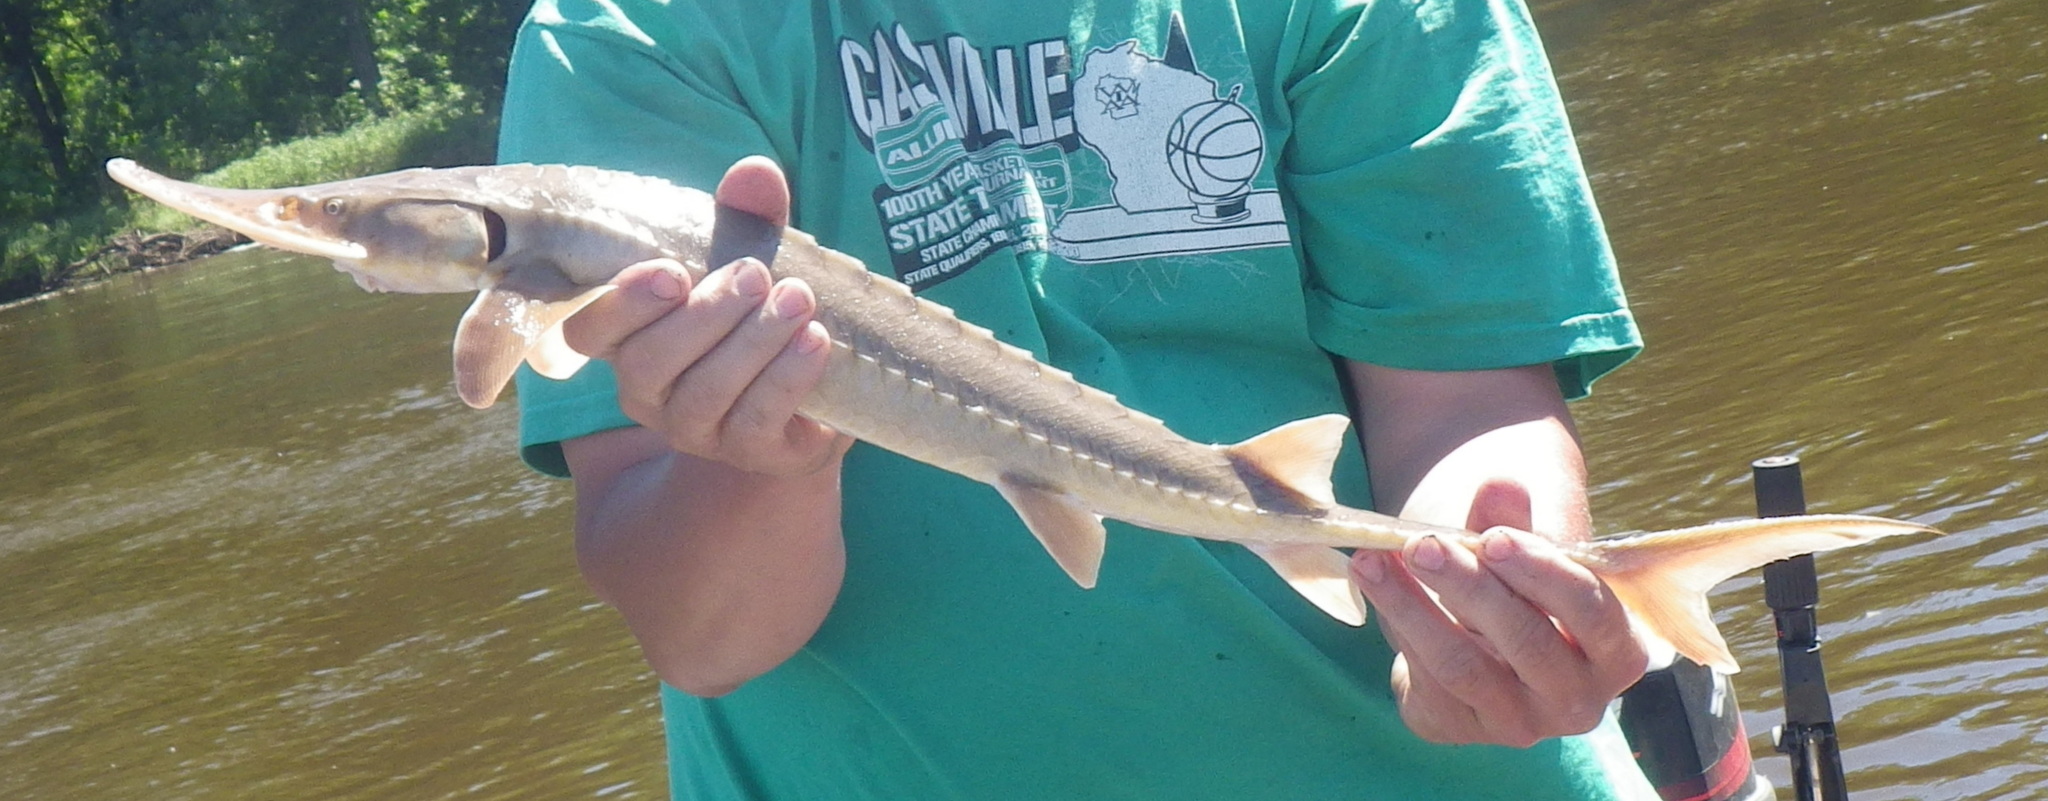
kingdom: Animalia
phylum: Chordata
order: Acipenseriformes
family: Acipenseridae
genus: Scaphirhynchus
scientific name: Scaphirhynchus platorynchus
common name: Shovelnose sturgeon
